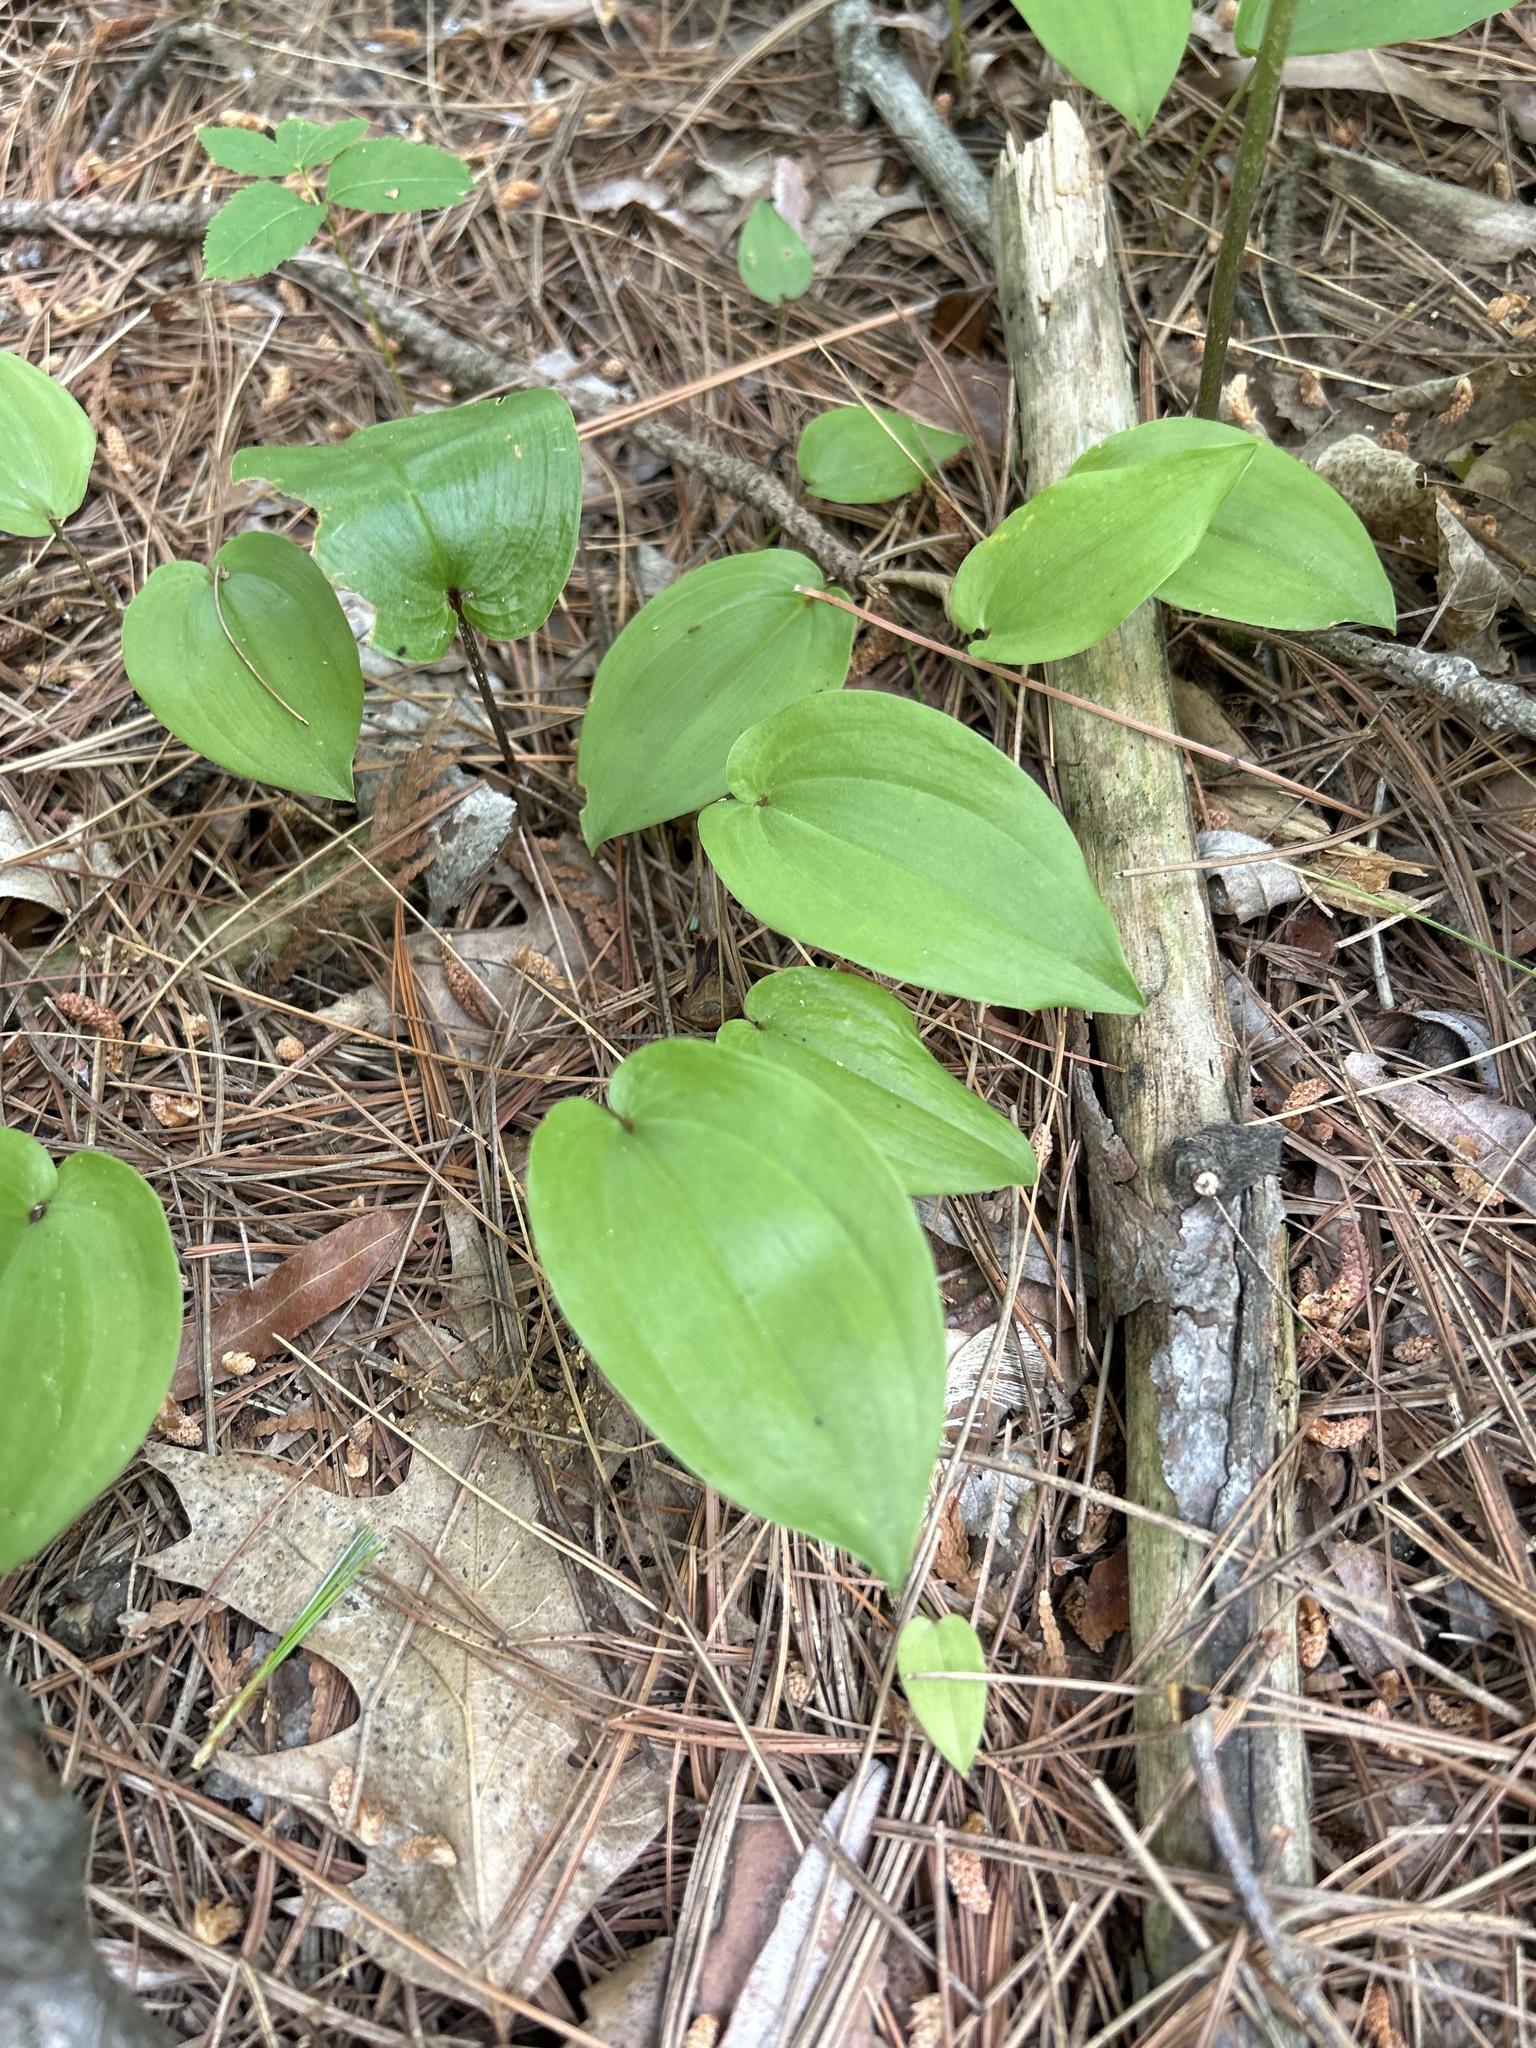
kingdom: Plantae
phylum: Tracheophyta
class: Liliopsida
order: Asparagales
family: Asparagaceae
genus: Maianthemum
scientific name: Maianthemum canadense
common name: False lily-of-the-valley
